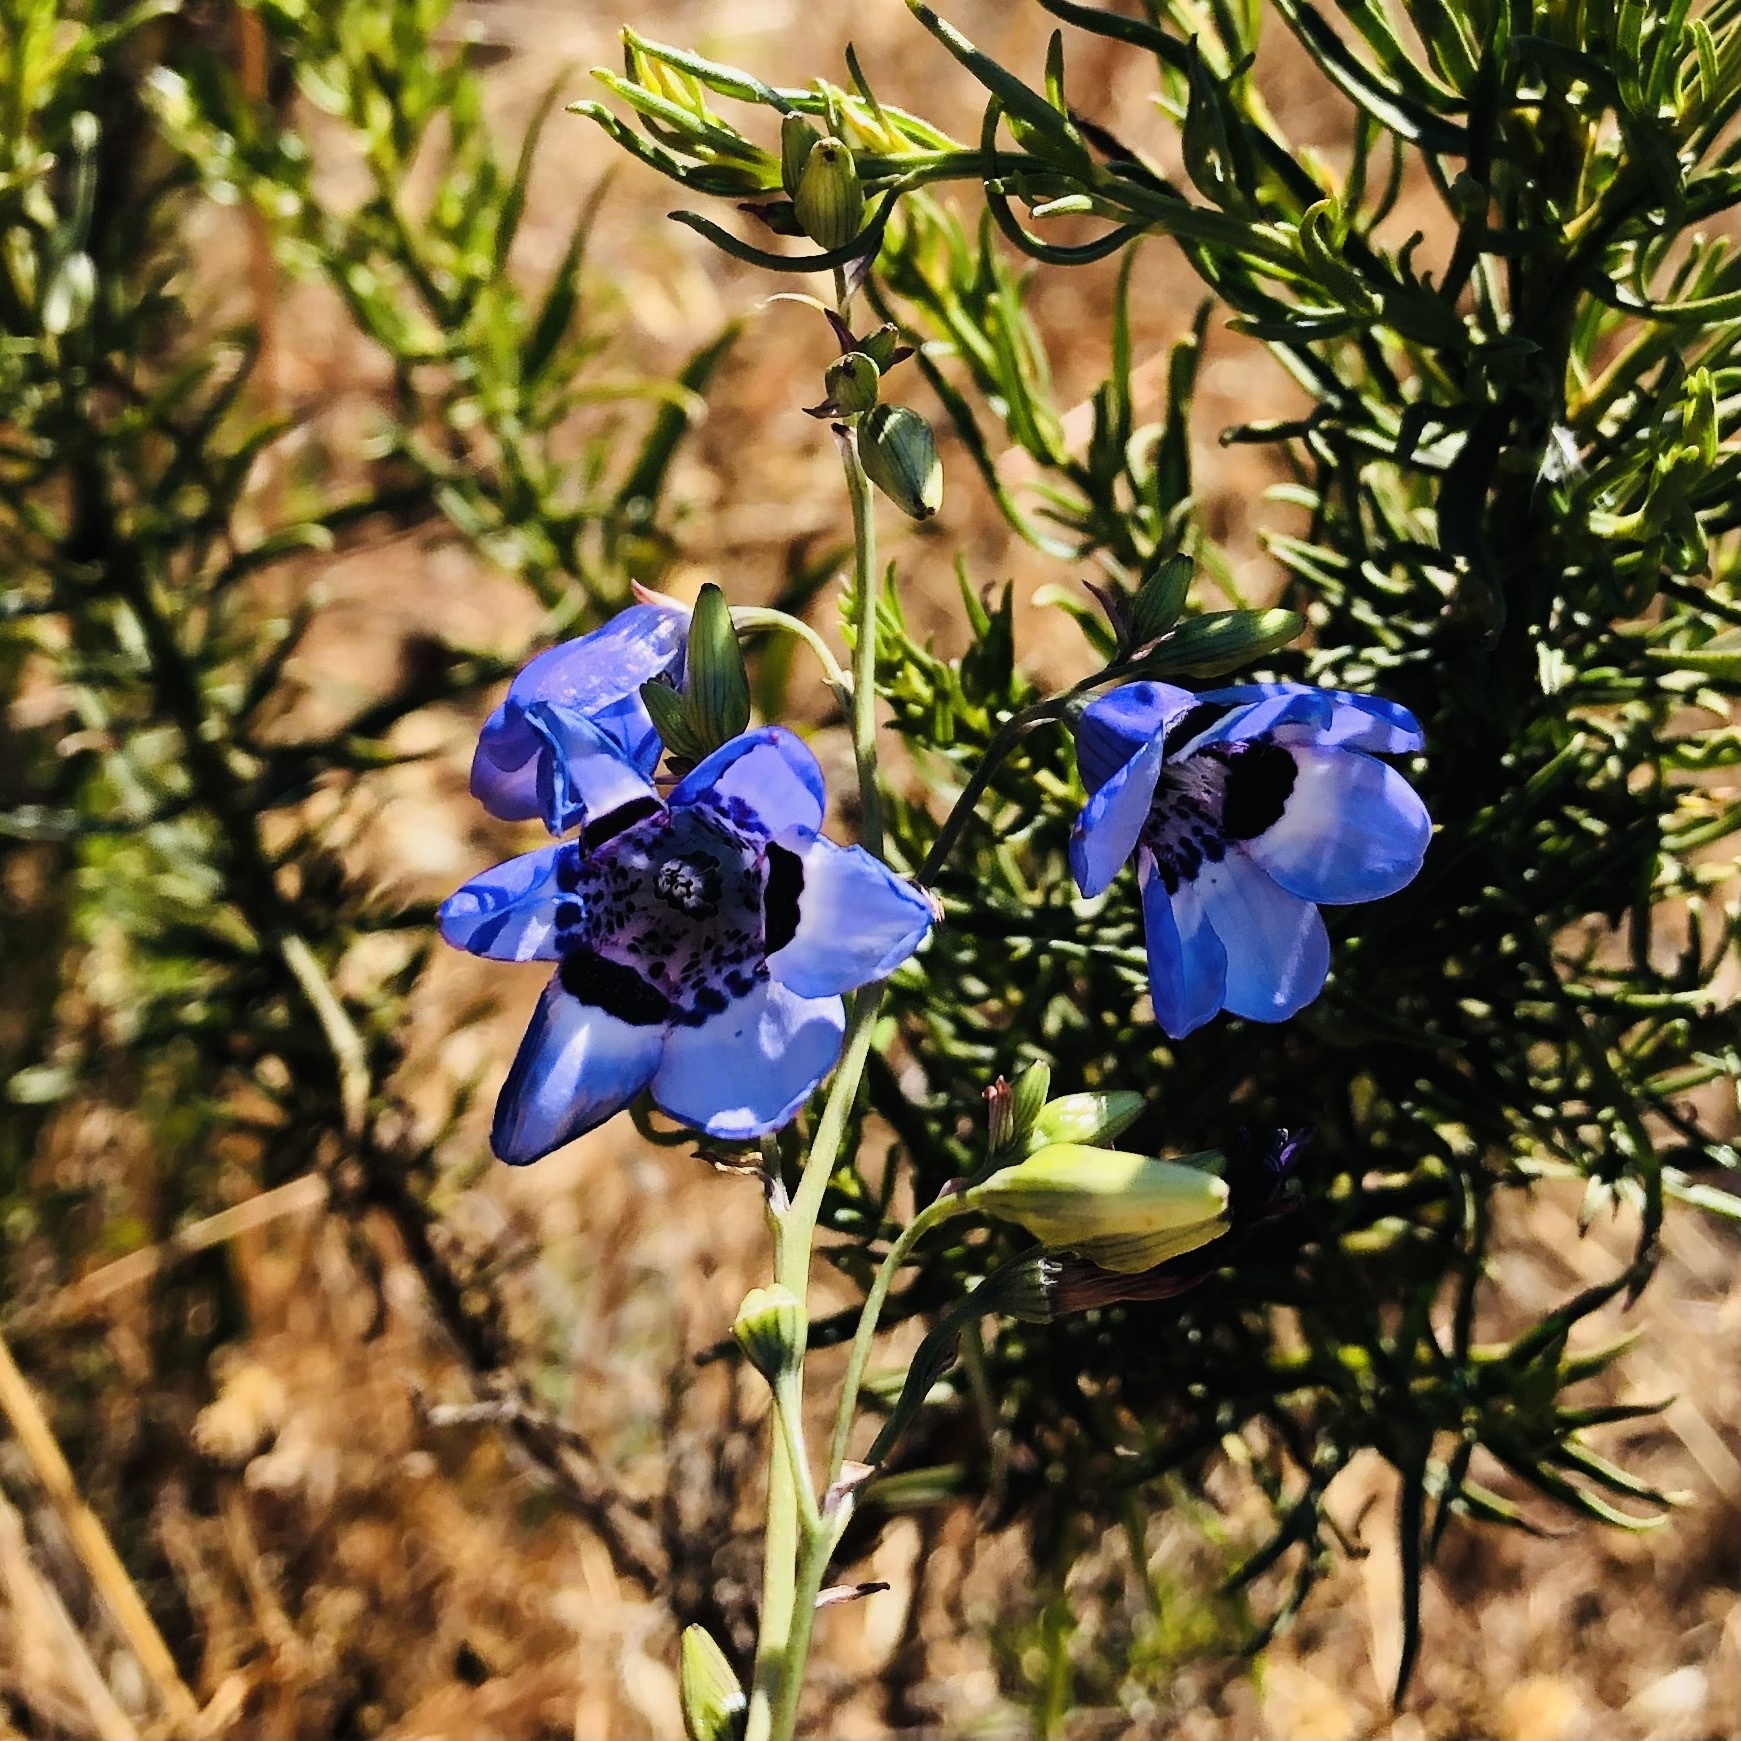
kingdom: Plantae
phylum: Tracheophyta
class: Liliopsida
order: Asparagales
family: Tecophilaeaceae
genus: Conanthera
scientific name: Conanthera trimaculata
